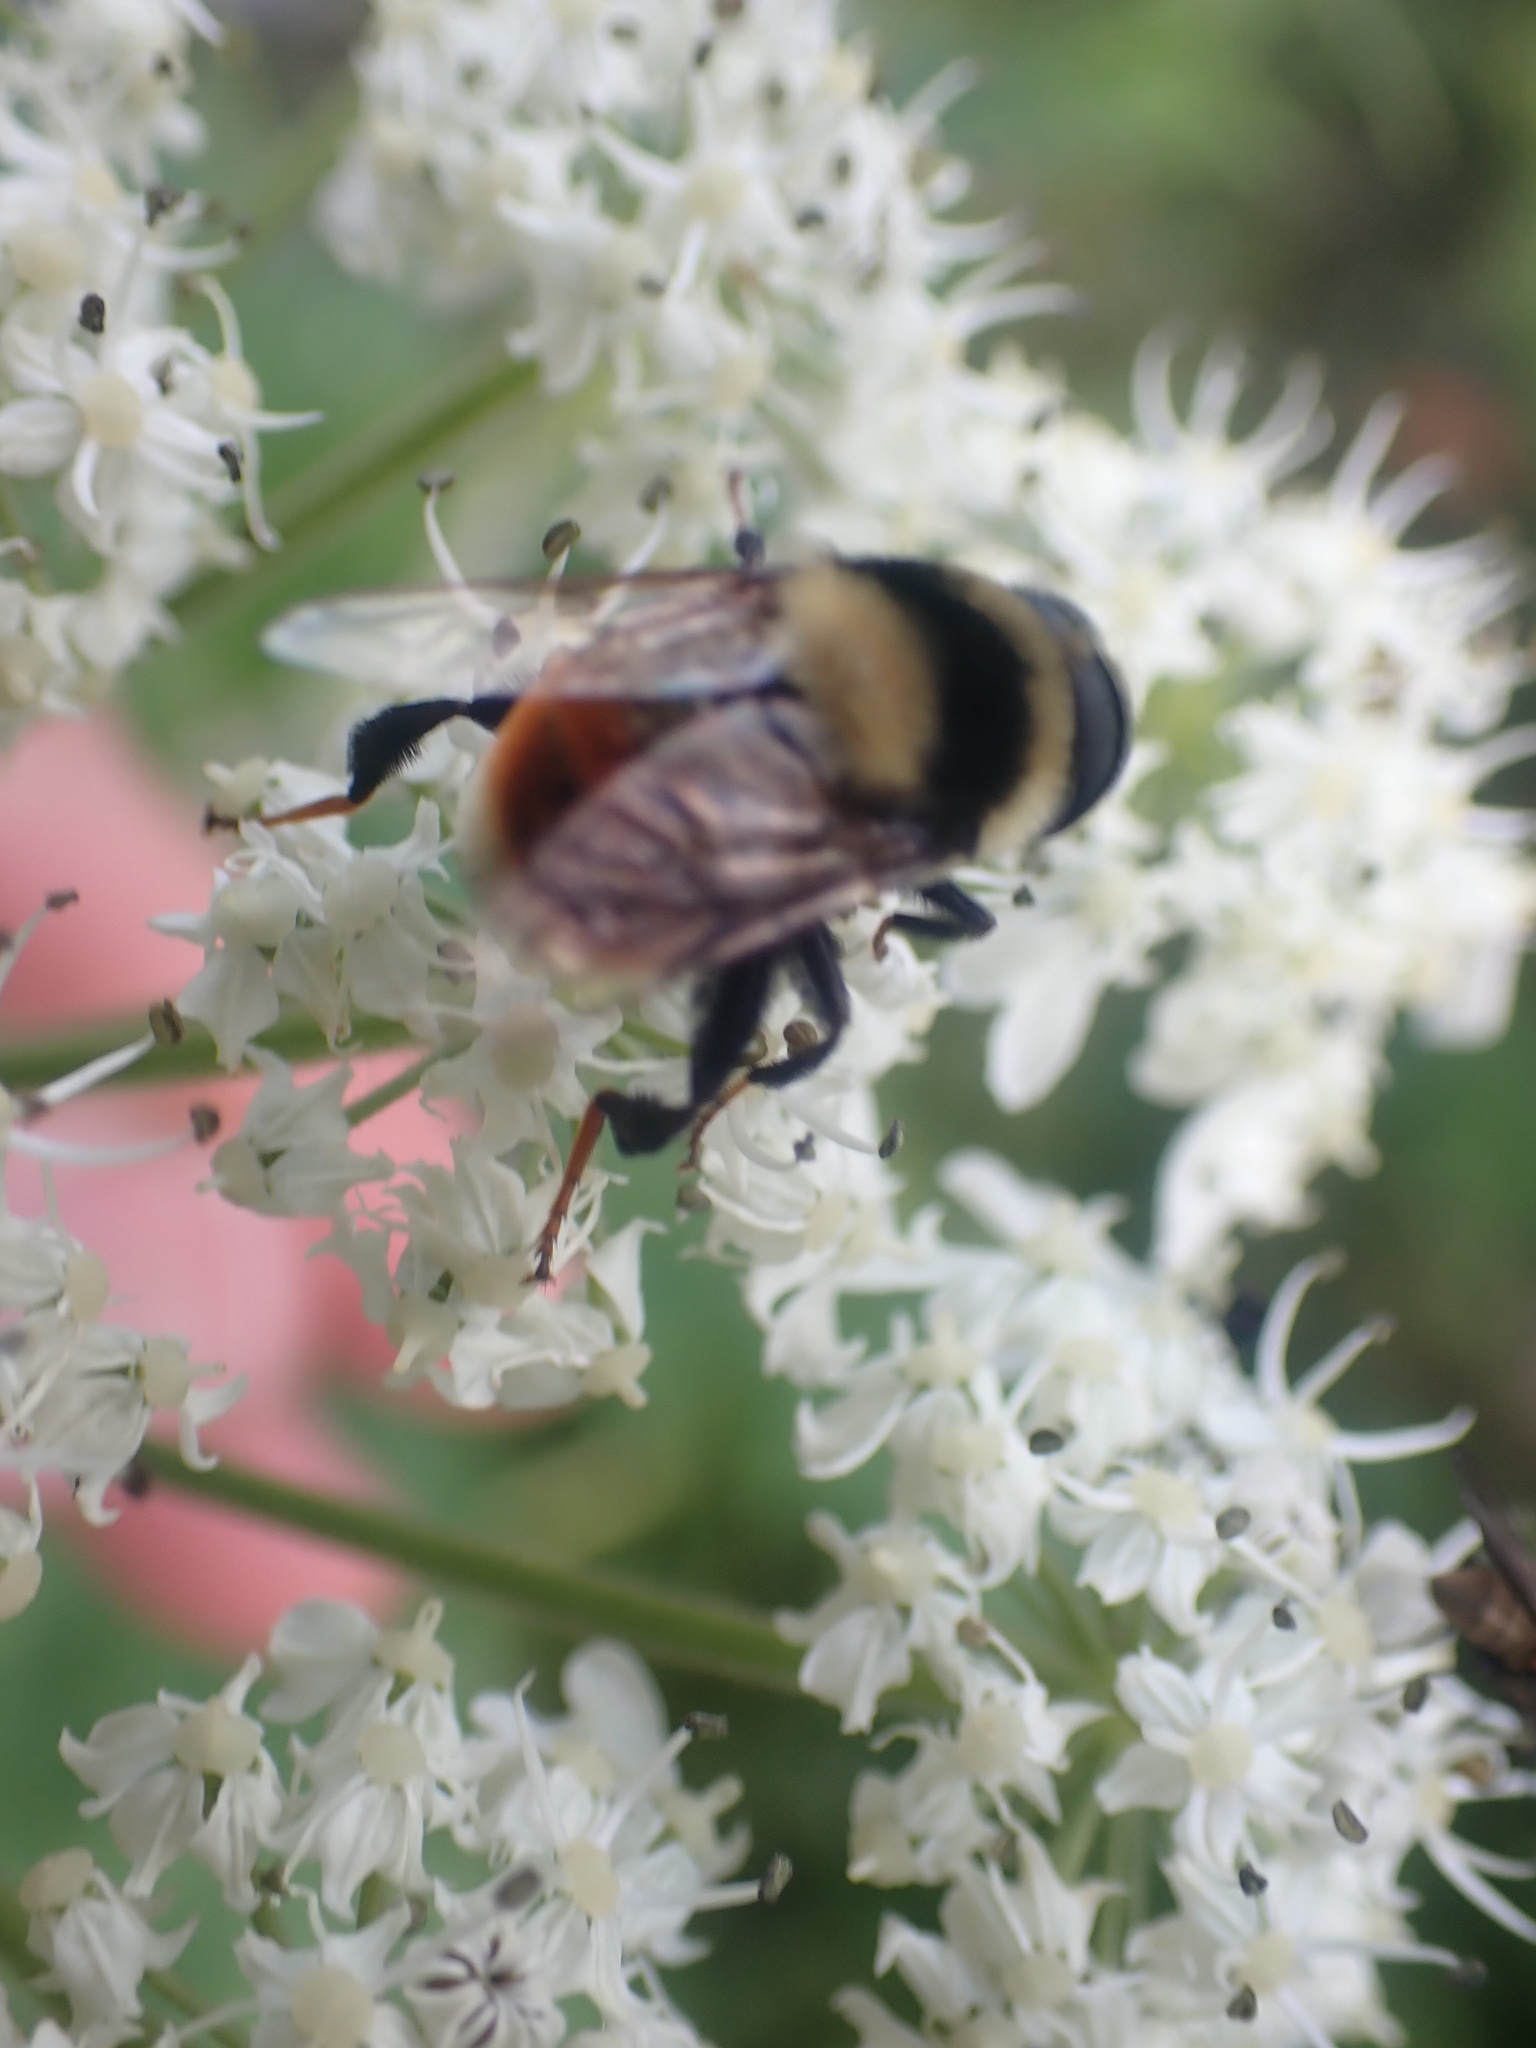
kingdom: Animalia
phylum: Arthropoda
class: Insecta
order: Diptera
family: Syrphidae
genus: Eristalis
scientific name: Eristalis flavipes
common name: Orange-legged drone fly
